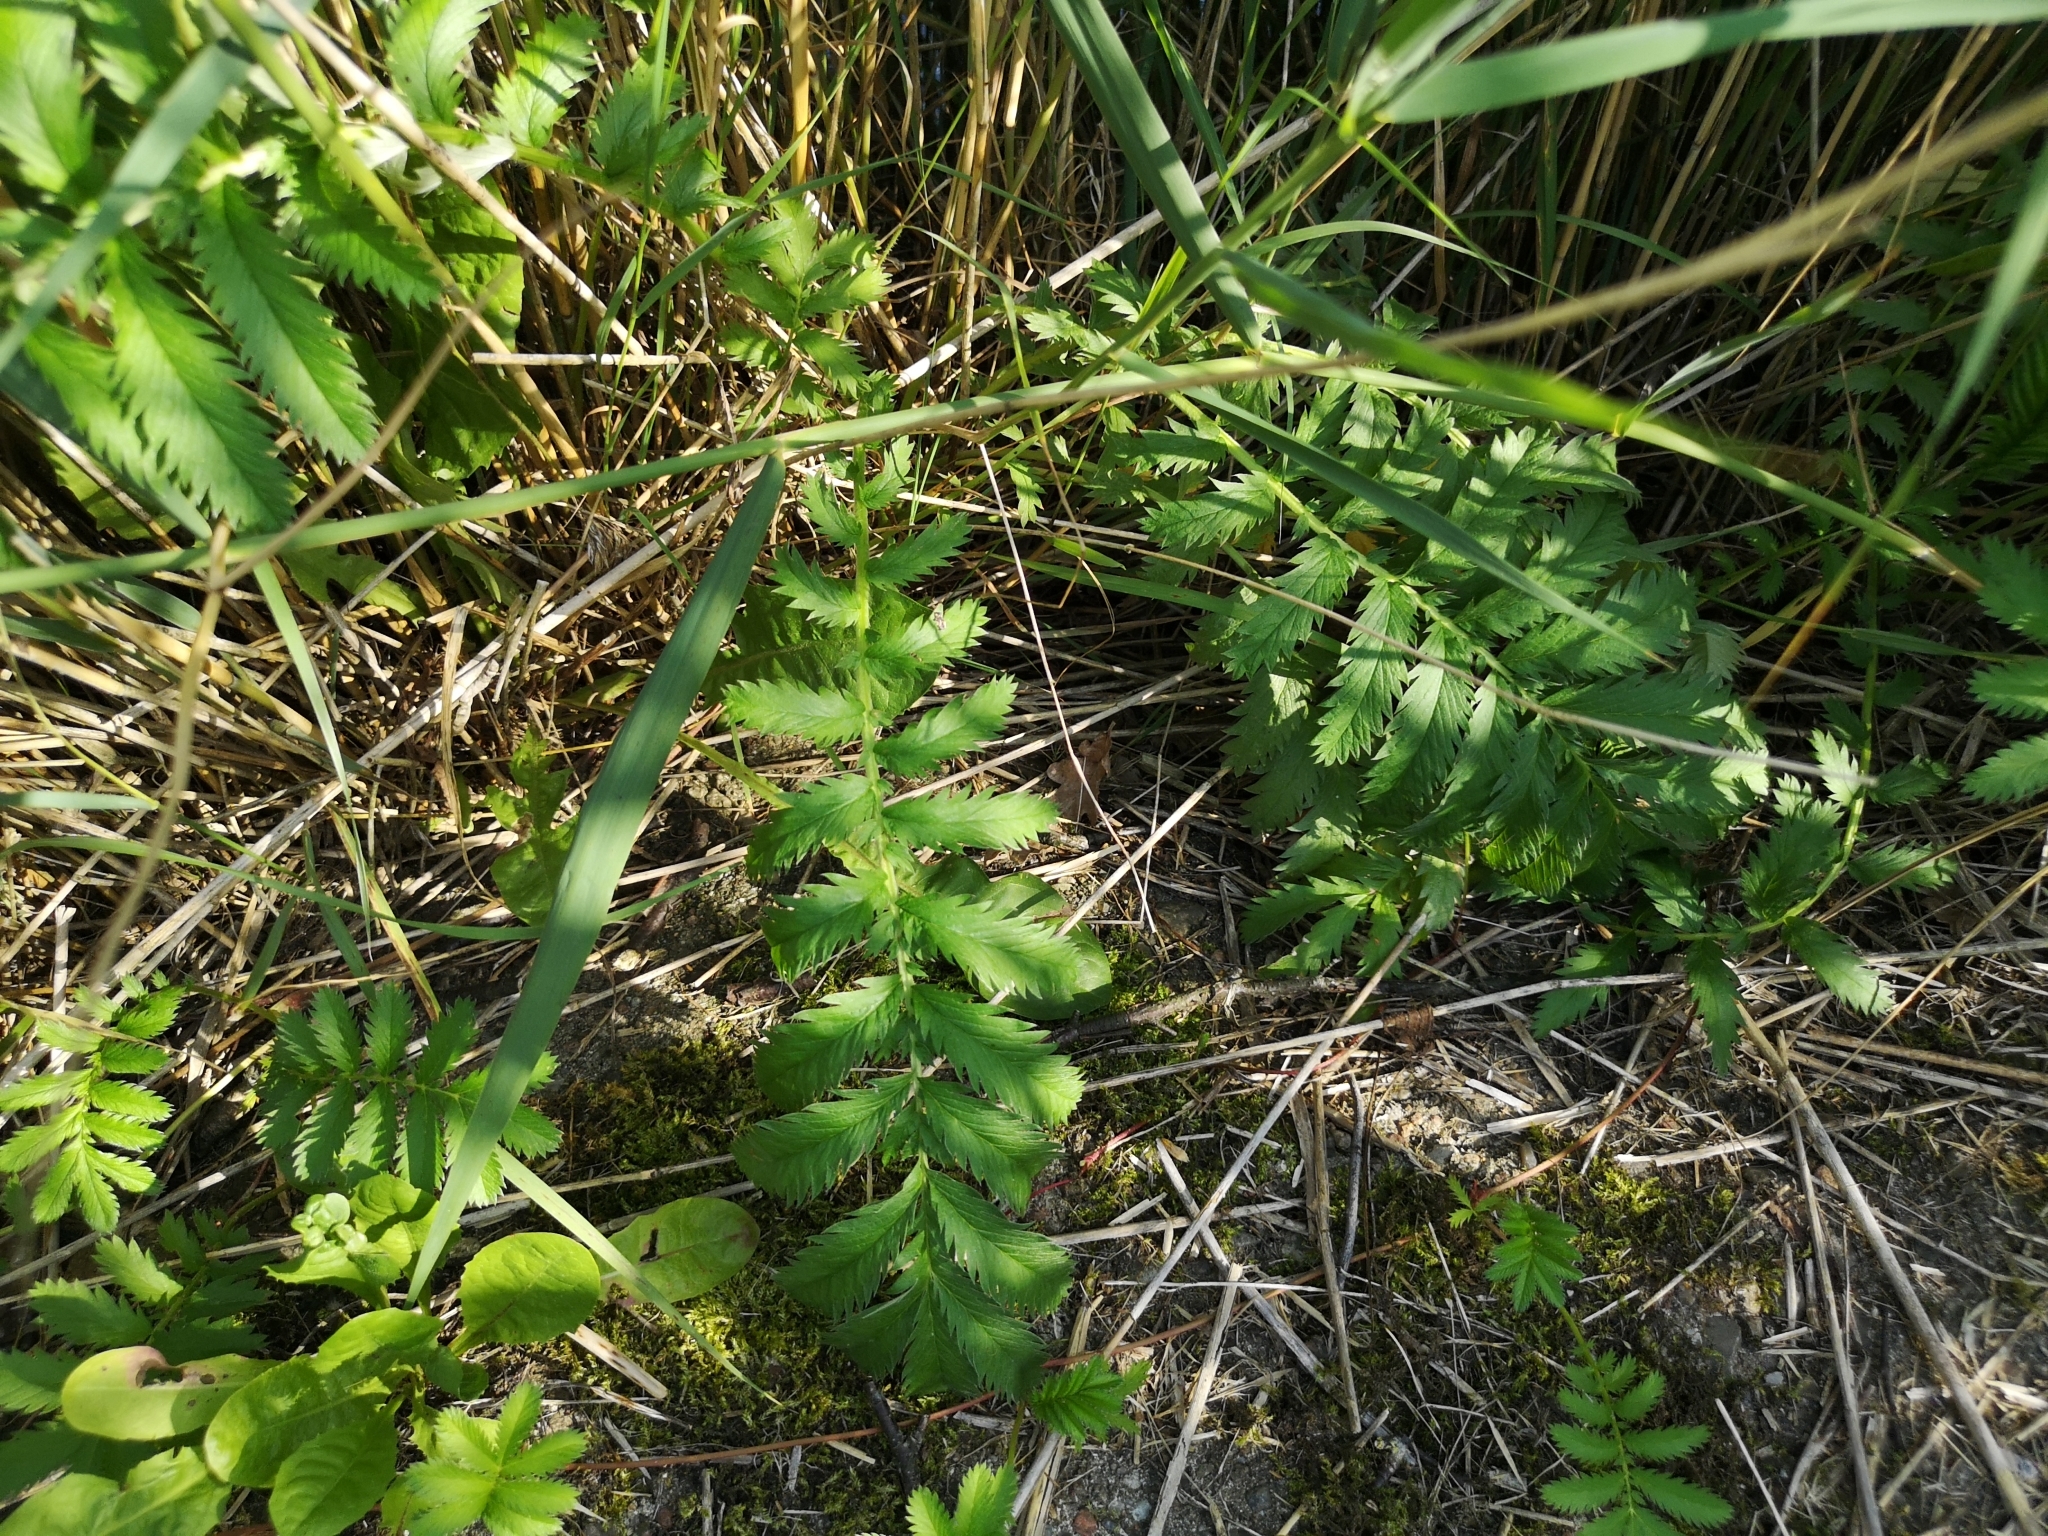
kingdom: Plantae
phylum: Tracheophyta
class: Magnoliopsida
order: Rosales
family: Rosaceae
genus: Argentina
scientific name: Argentina anserina
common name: Common silverweed
